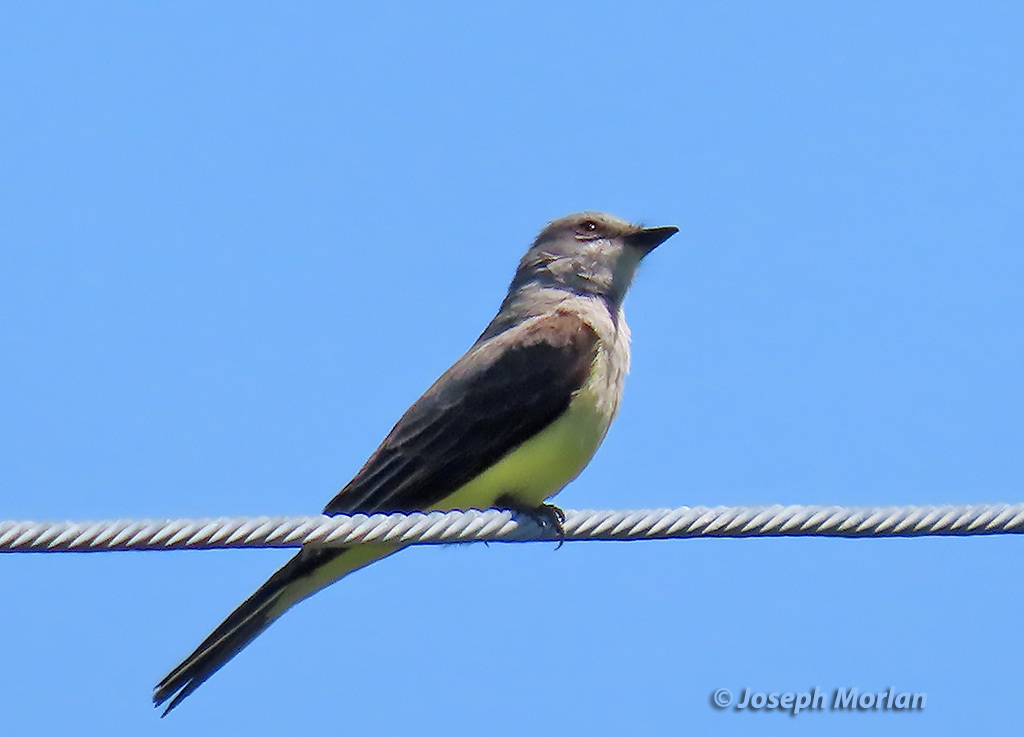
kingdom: Animalia
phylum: Chordata
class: Aves
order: Passeriformes
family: Tyrannidae
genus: Tyrannus
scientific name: Tyrannus verticalis
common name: Western kingbird
